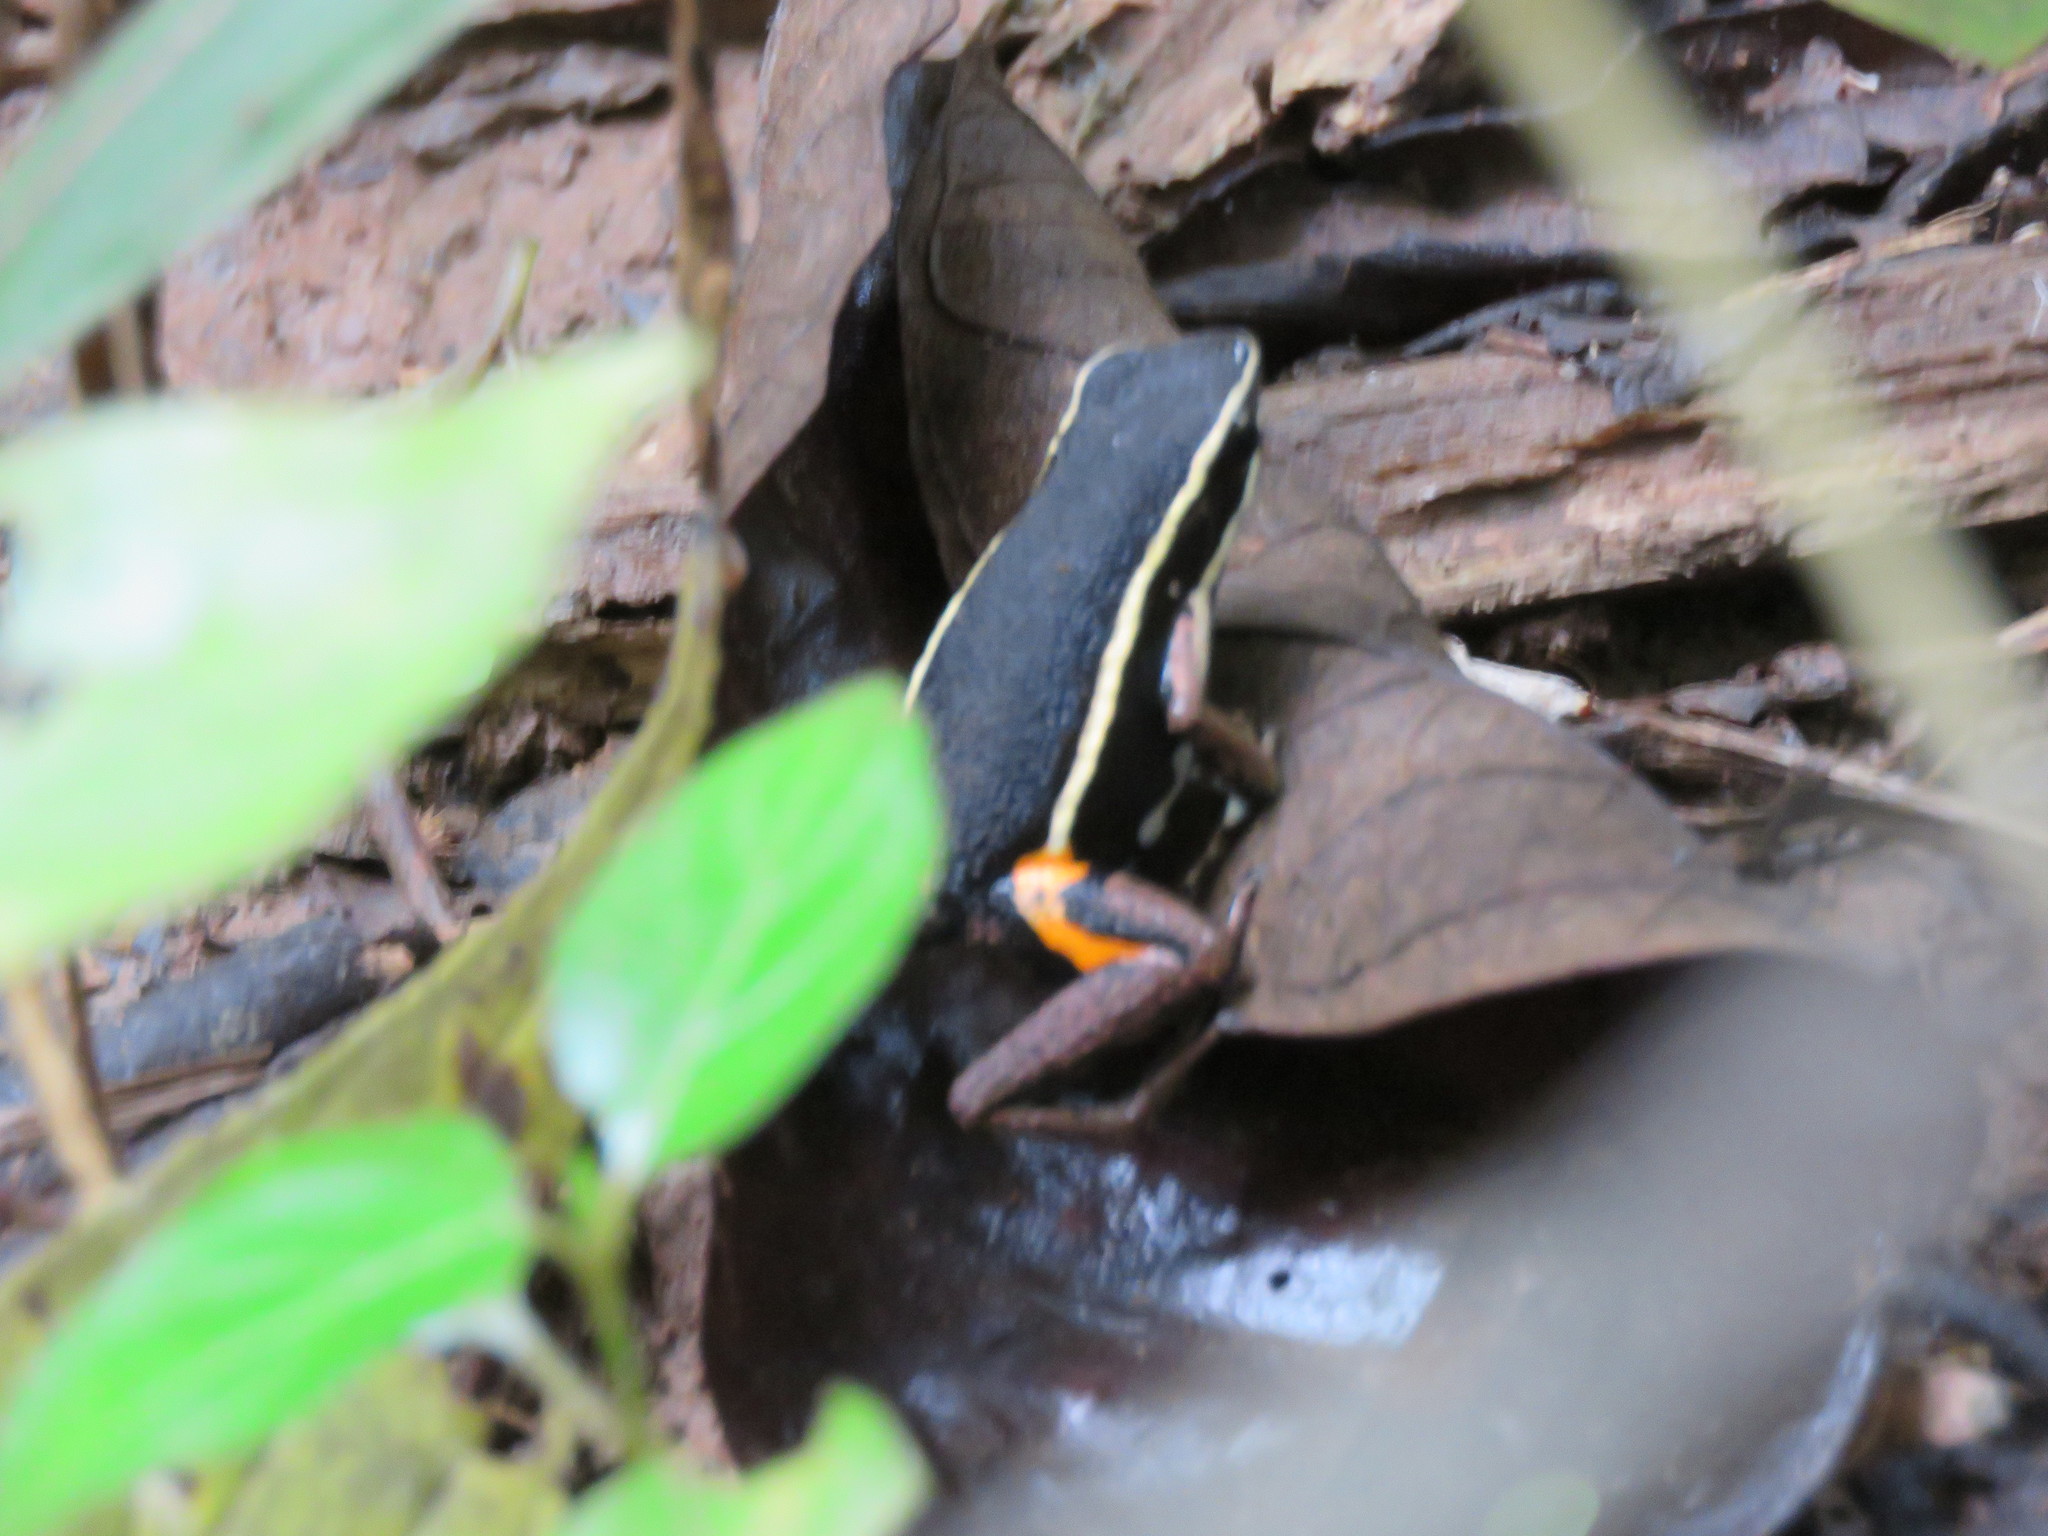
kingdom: Animalia
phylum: Chordata
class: Amphibia
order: Anura
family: Dendrobatidae
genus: Ameerega
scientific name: Ameerega picta
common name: Spot-legged poison frog
